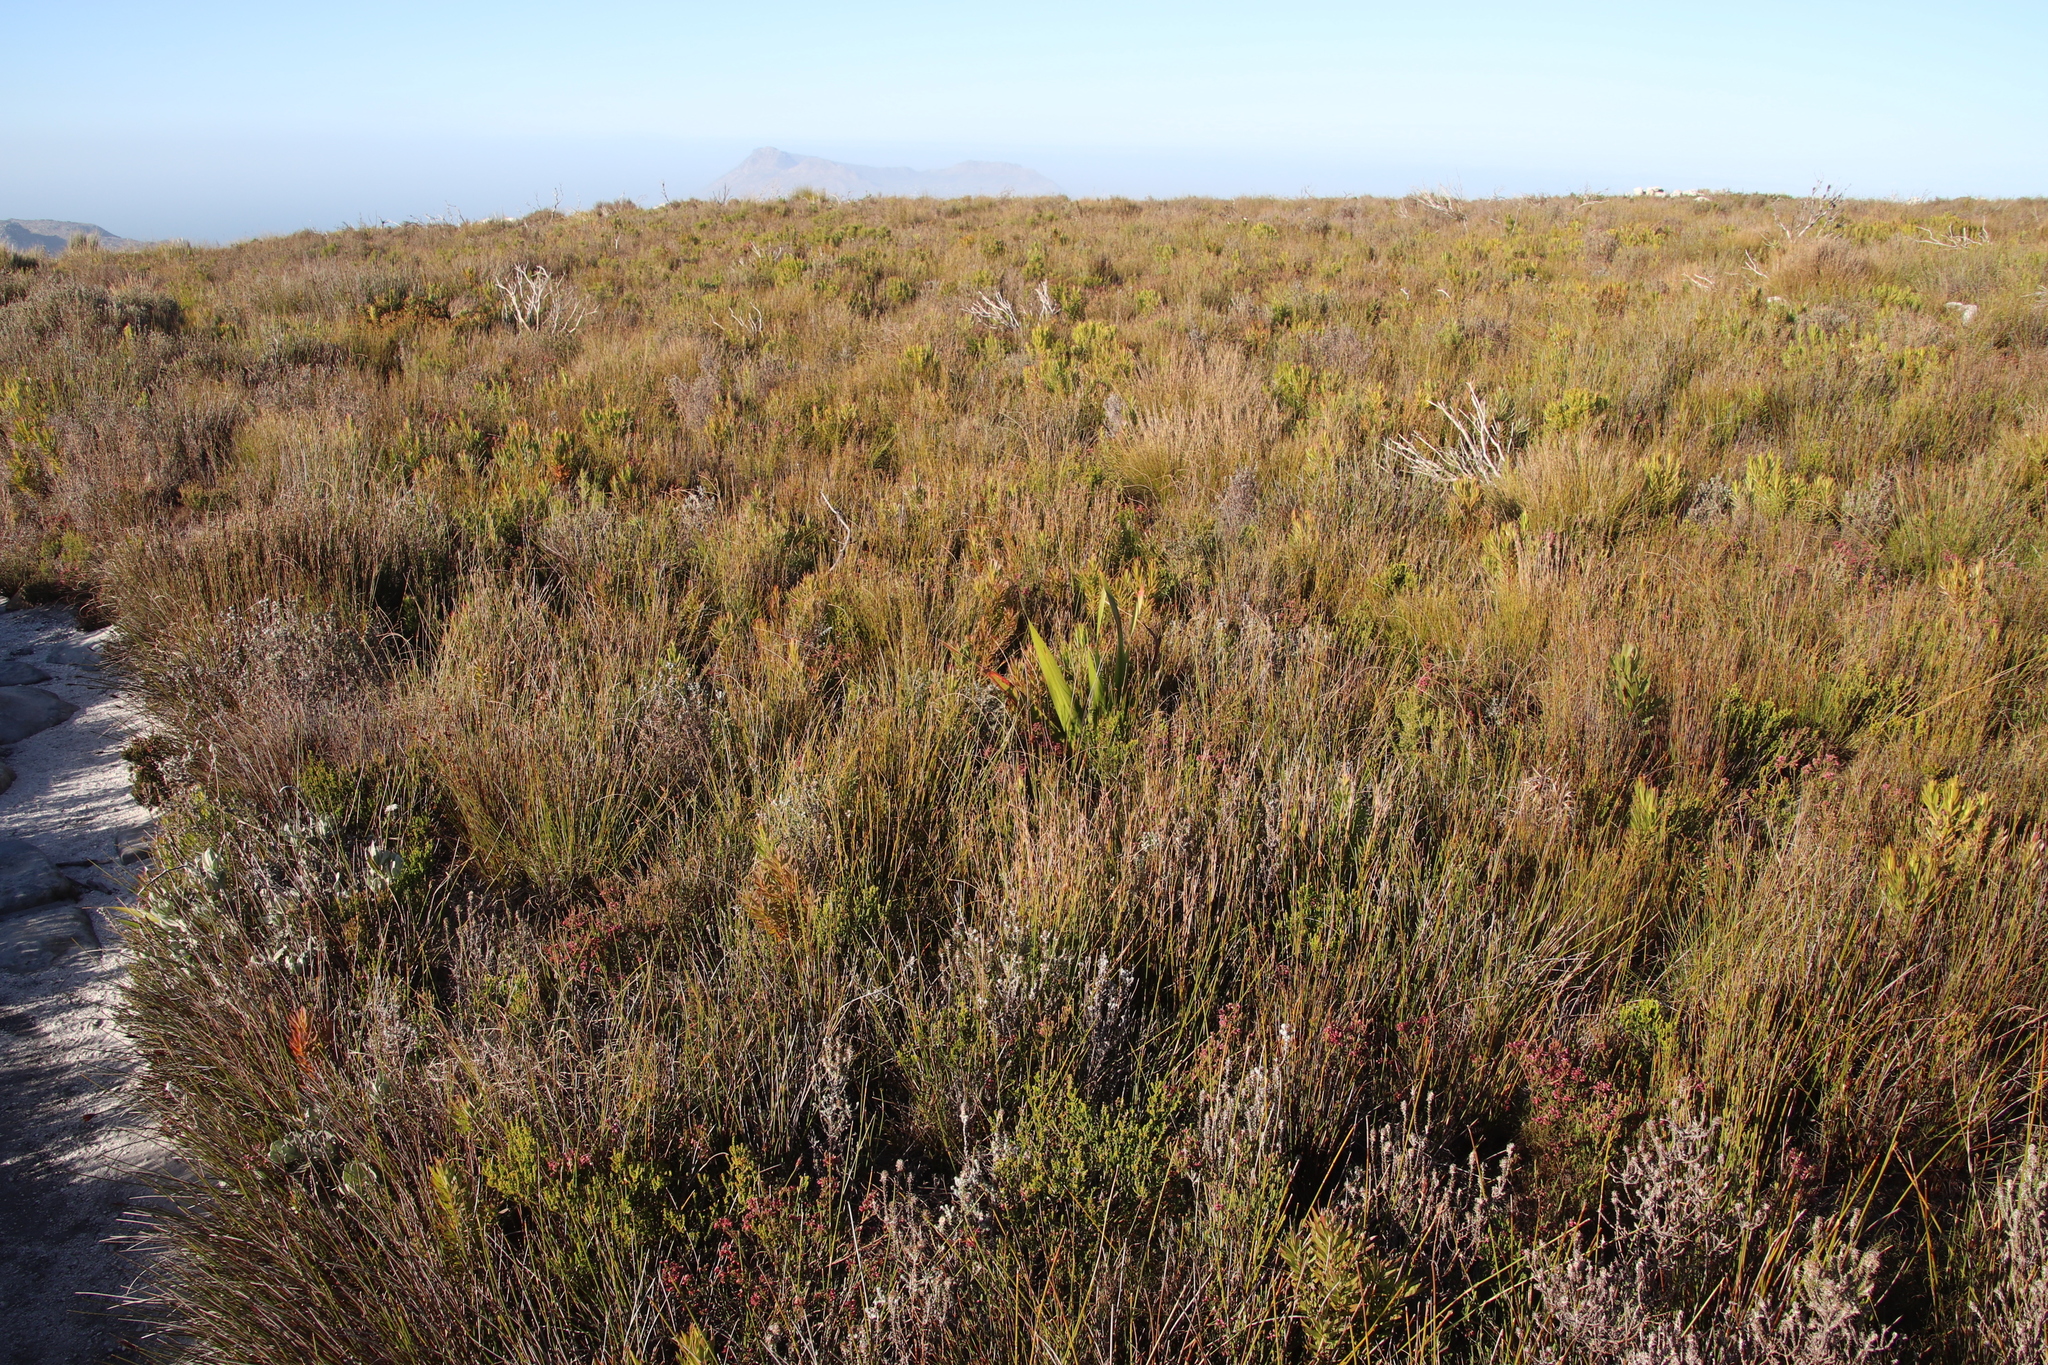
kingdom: Plantae
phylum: Tracheophyta
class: Magnoliopsida
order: Ericales
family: Ericaceae
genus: Erica
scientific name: Erica corifolia
